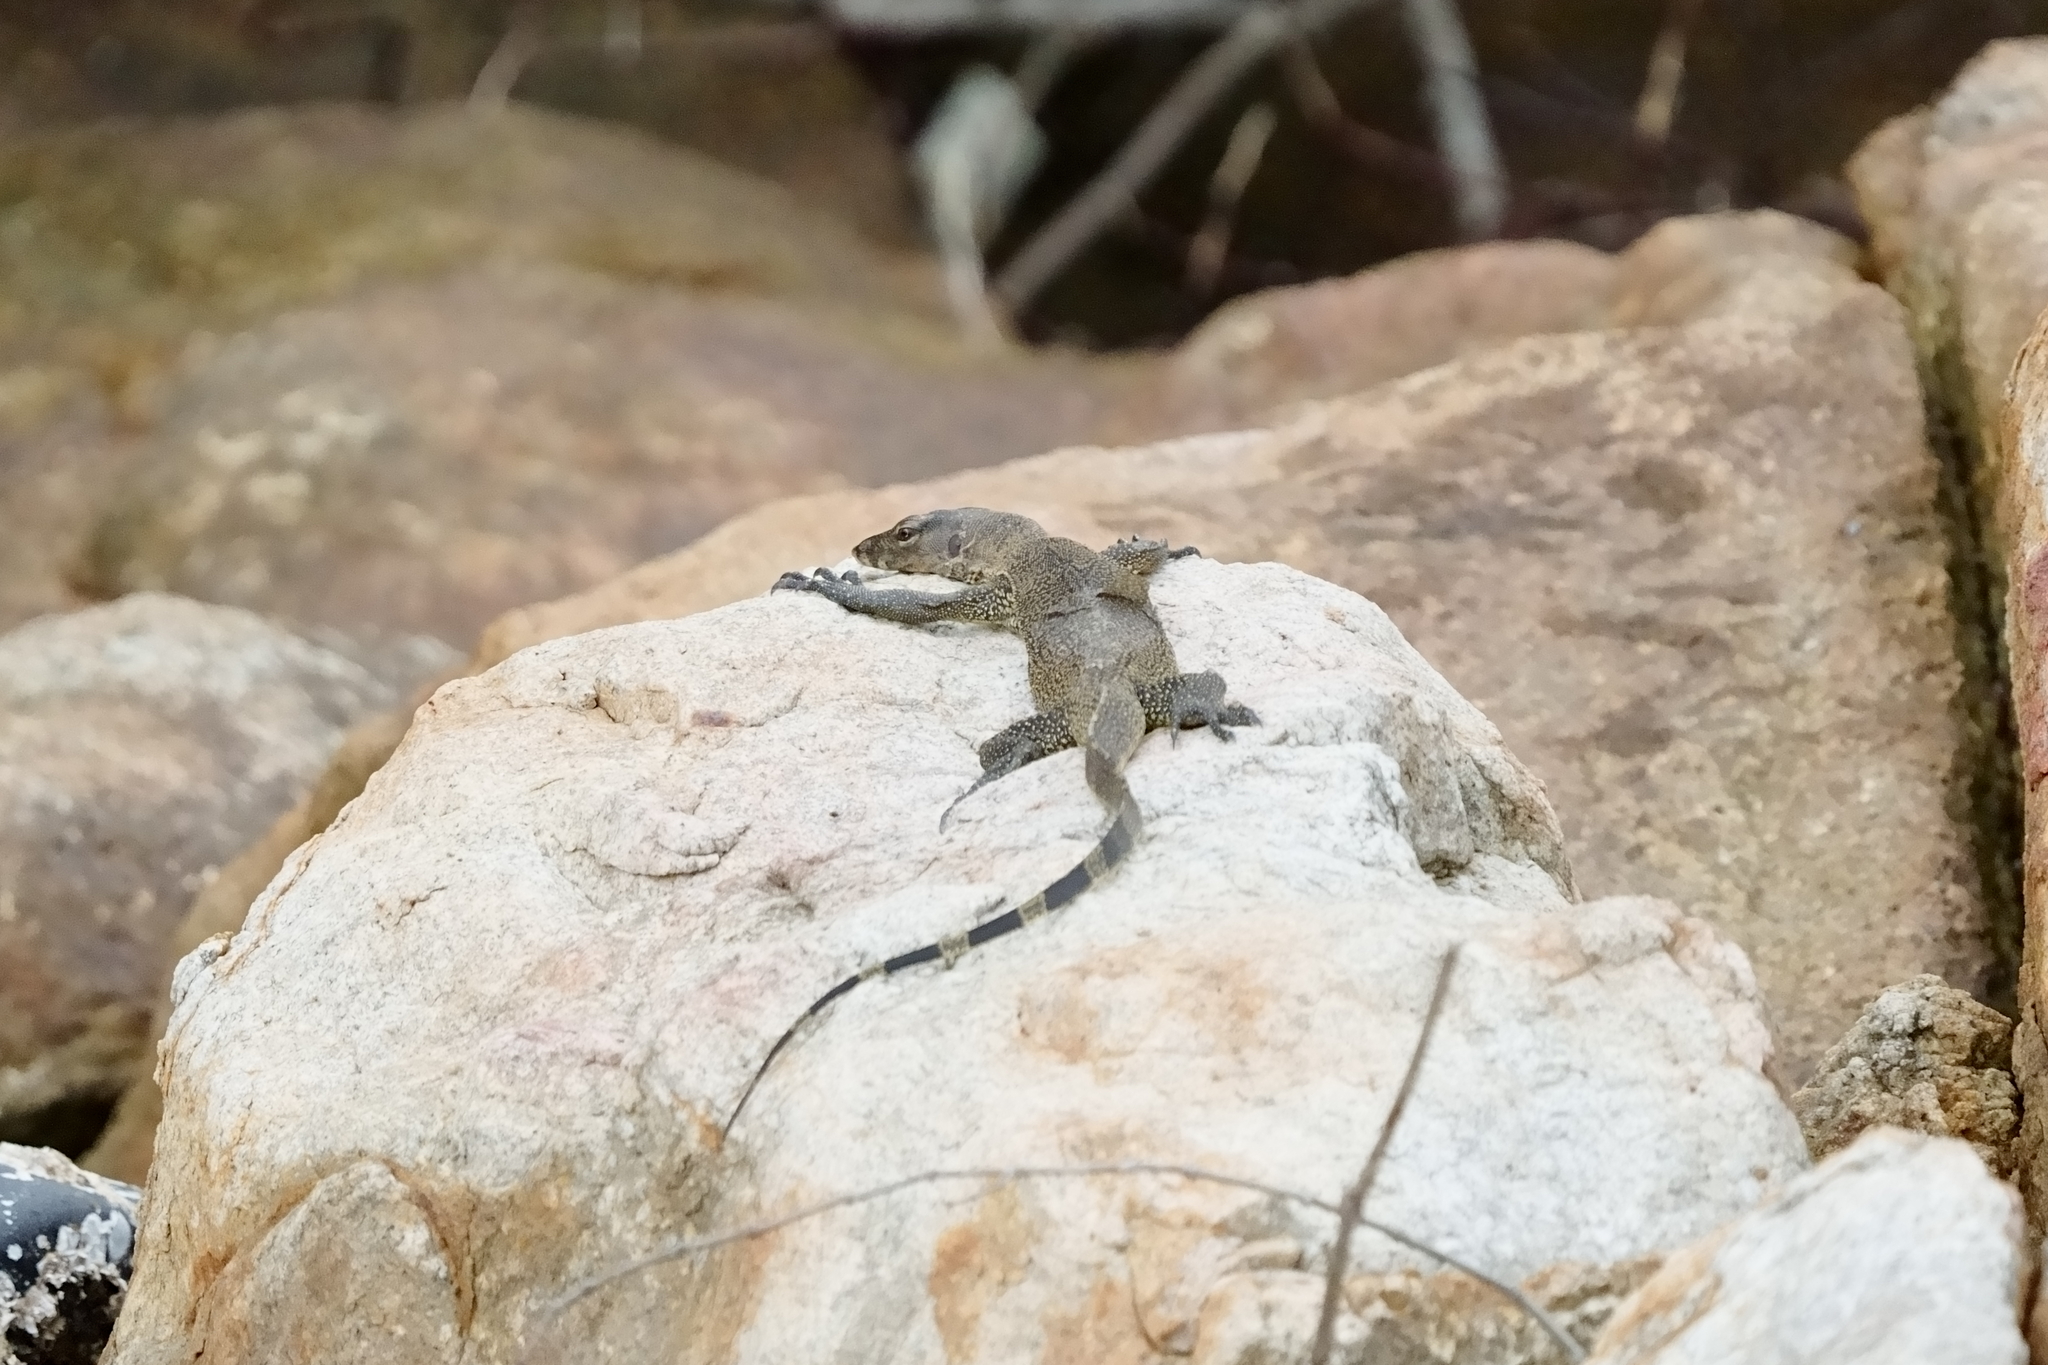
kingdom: Animalia
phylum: Chordata
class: Squamata
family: Varanidae
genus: Varanus
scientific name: Varanus salvator
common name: Common water monitor
